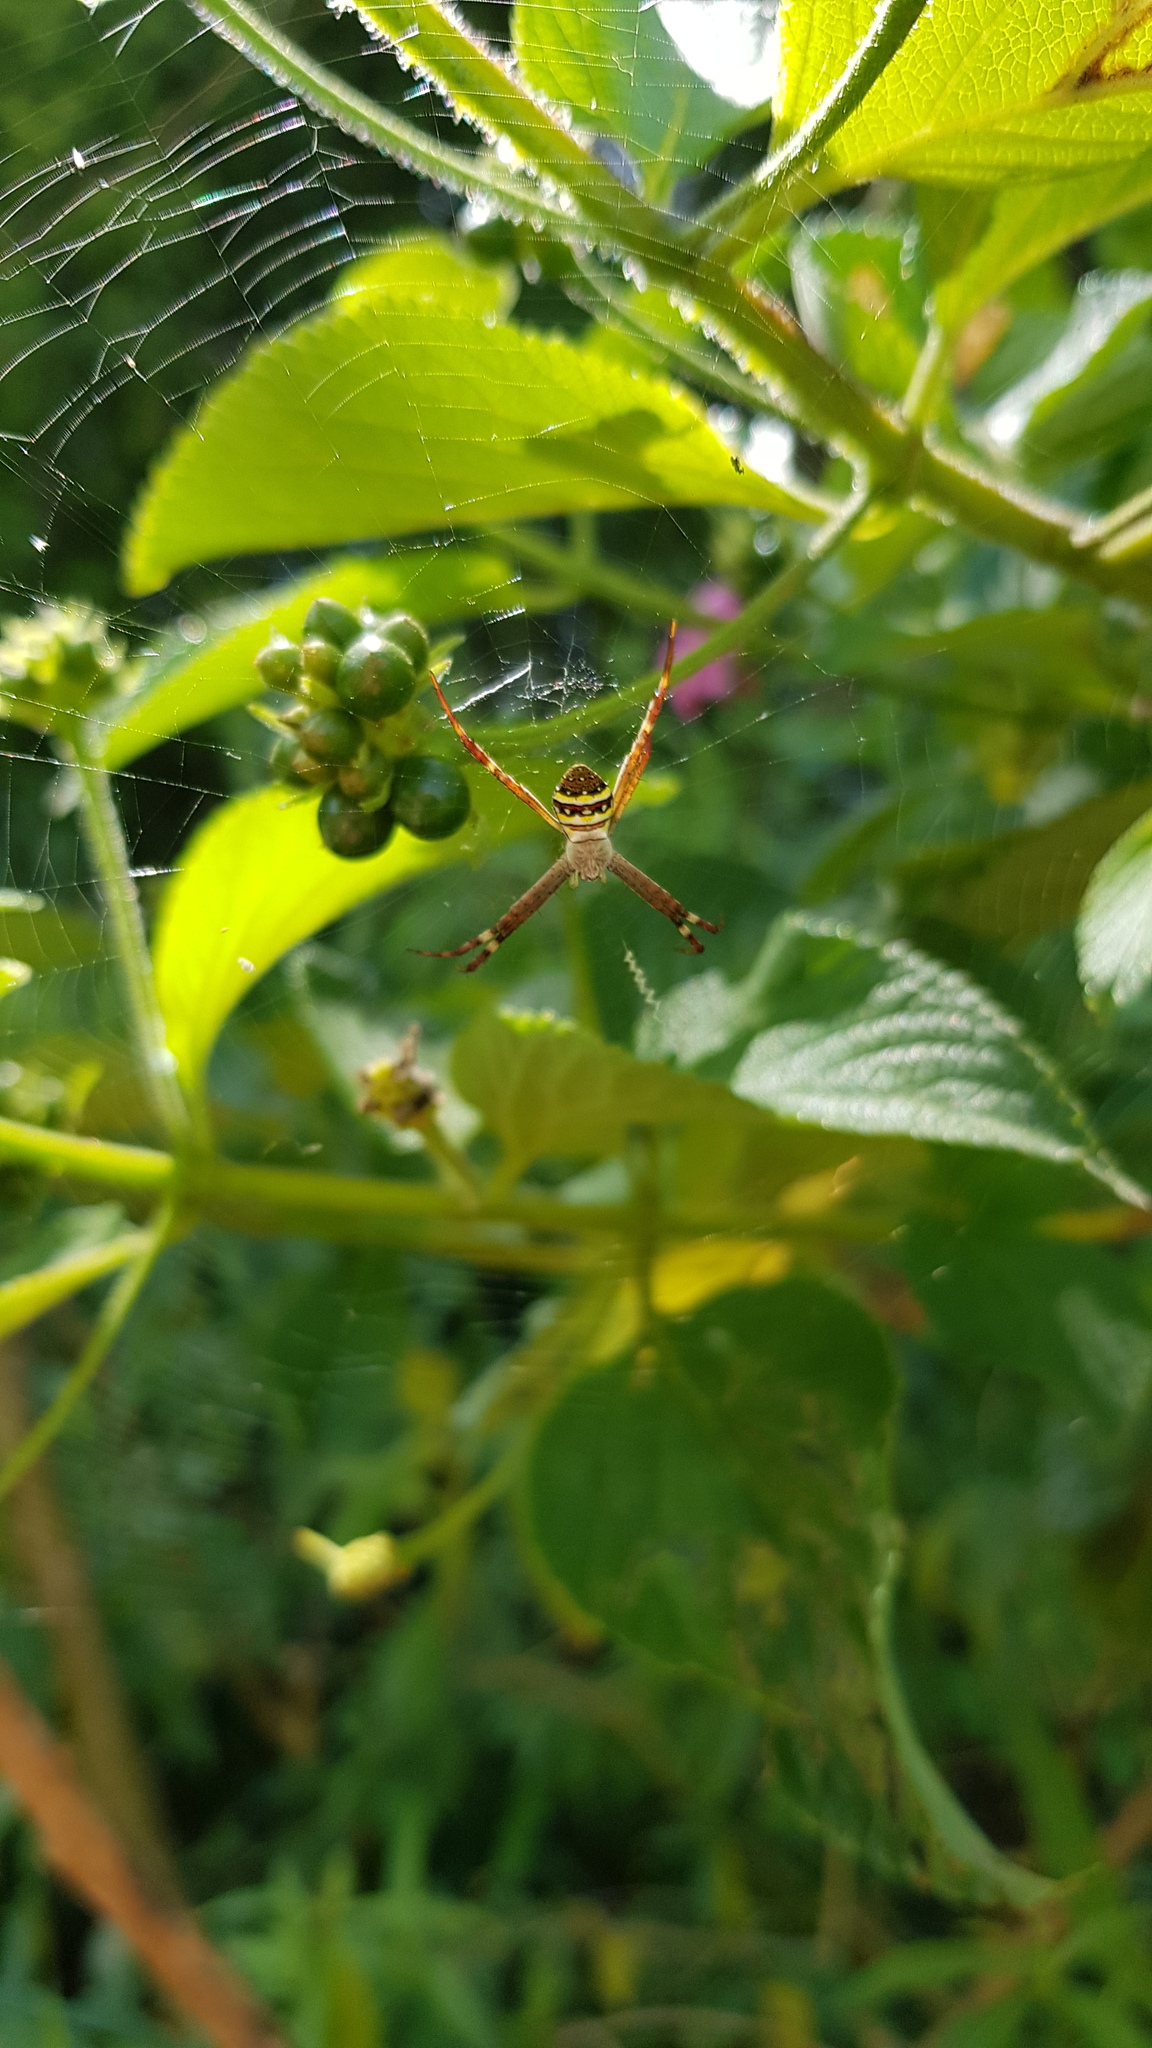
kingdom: Animalia
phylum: Arthropoda
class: Arachnida
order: Araneae
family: Araneidae
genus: Argiope
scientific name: Argiope keyserlingi
